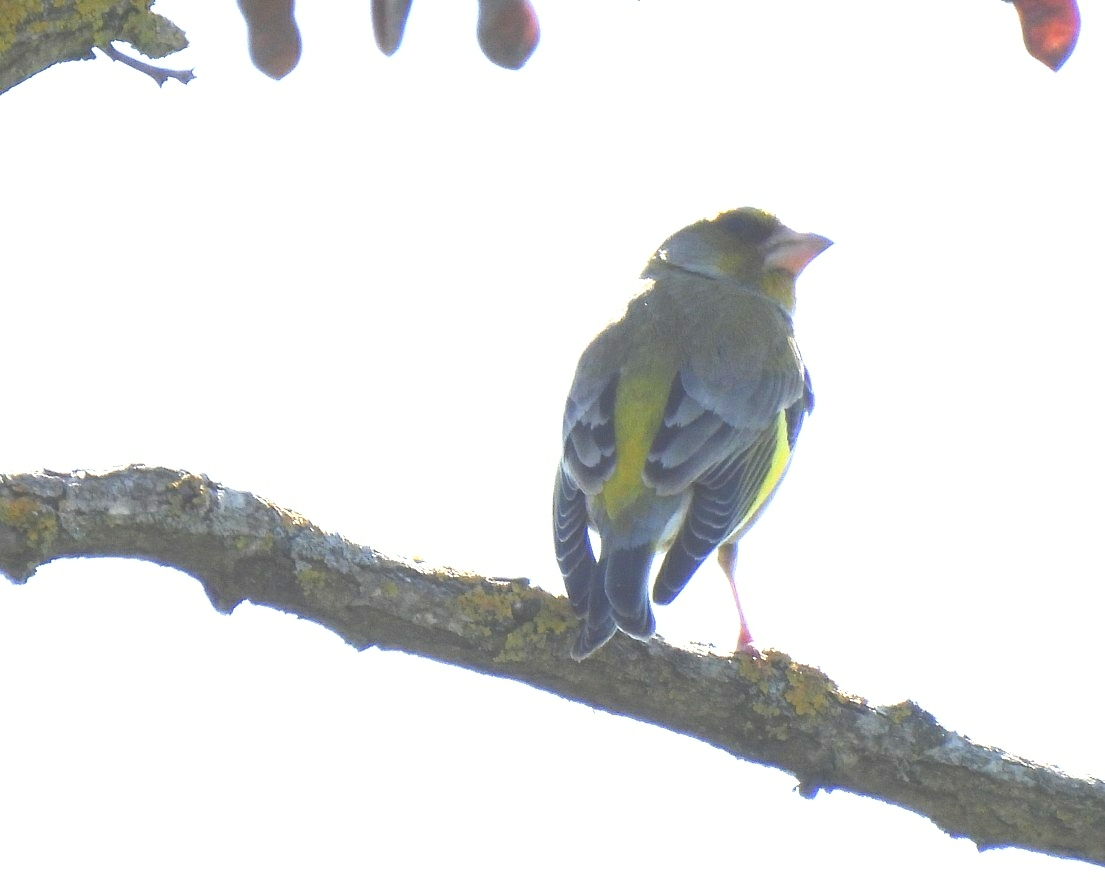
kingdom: Plantae
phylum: Tracheophyta
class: Liliopsida
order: Poales
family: Poaceae
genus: Chloris
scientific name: Chloris chloris
